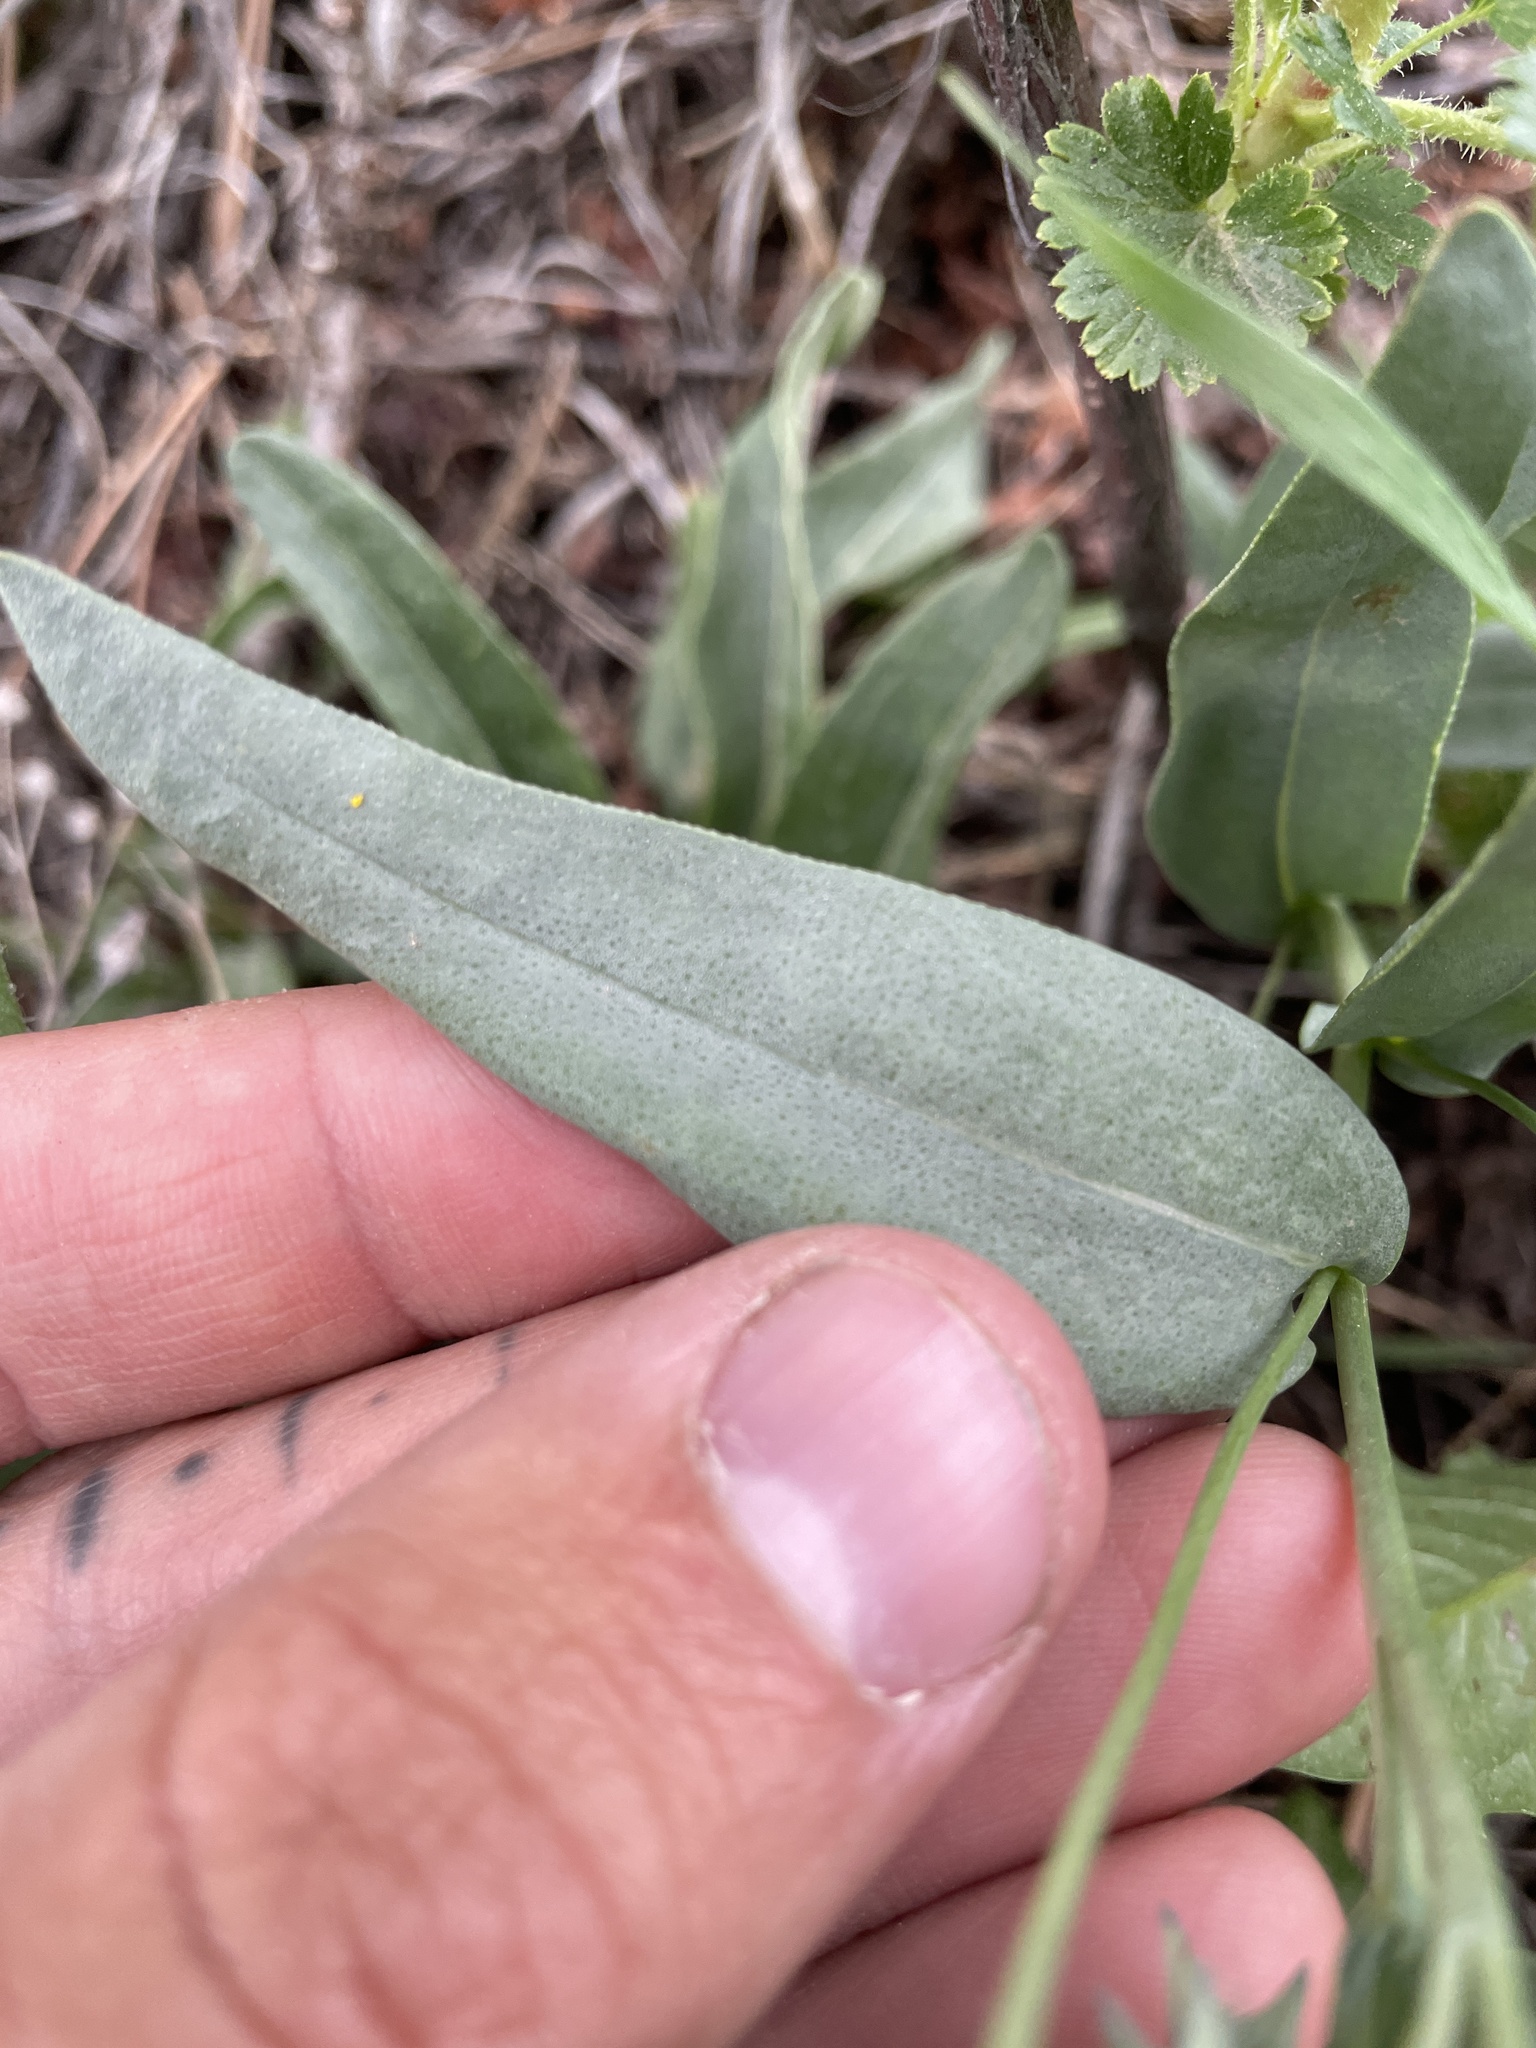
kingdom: Plantae
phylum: Tracheophyta
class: Magnoliopsida
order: Boraginales
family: Boraginaceae
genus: Mertensia
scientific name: Mertensia lanceolata
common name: Lance-leaved bluebells
